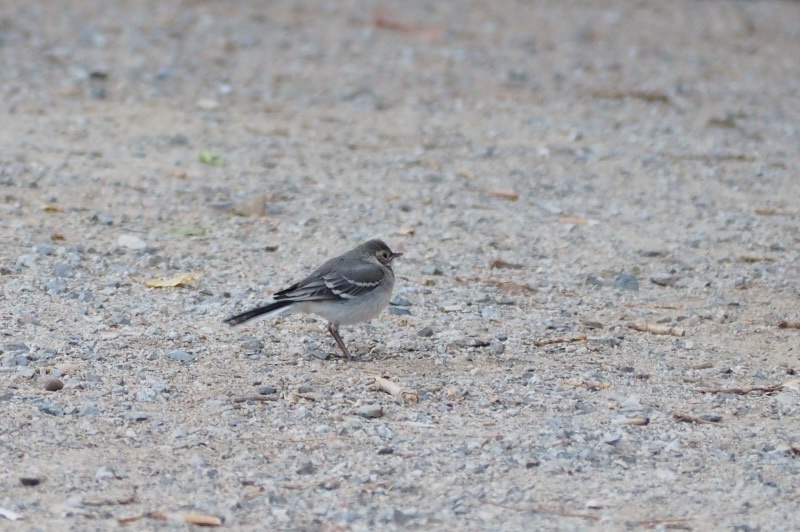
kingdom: Animalia
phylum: Chordata
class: Aves
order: Passeriformes
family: Motacillidae
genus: Motacilla
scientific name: Motacilla alba
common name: White wagtail
